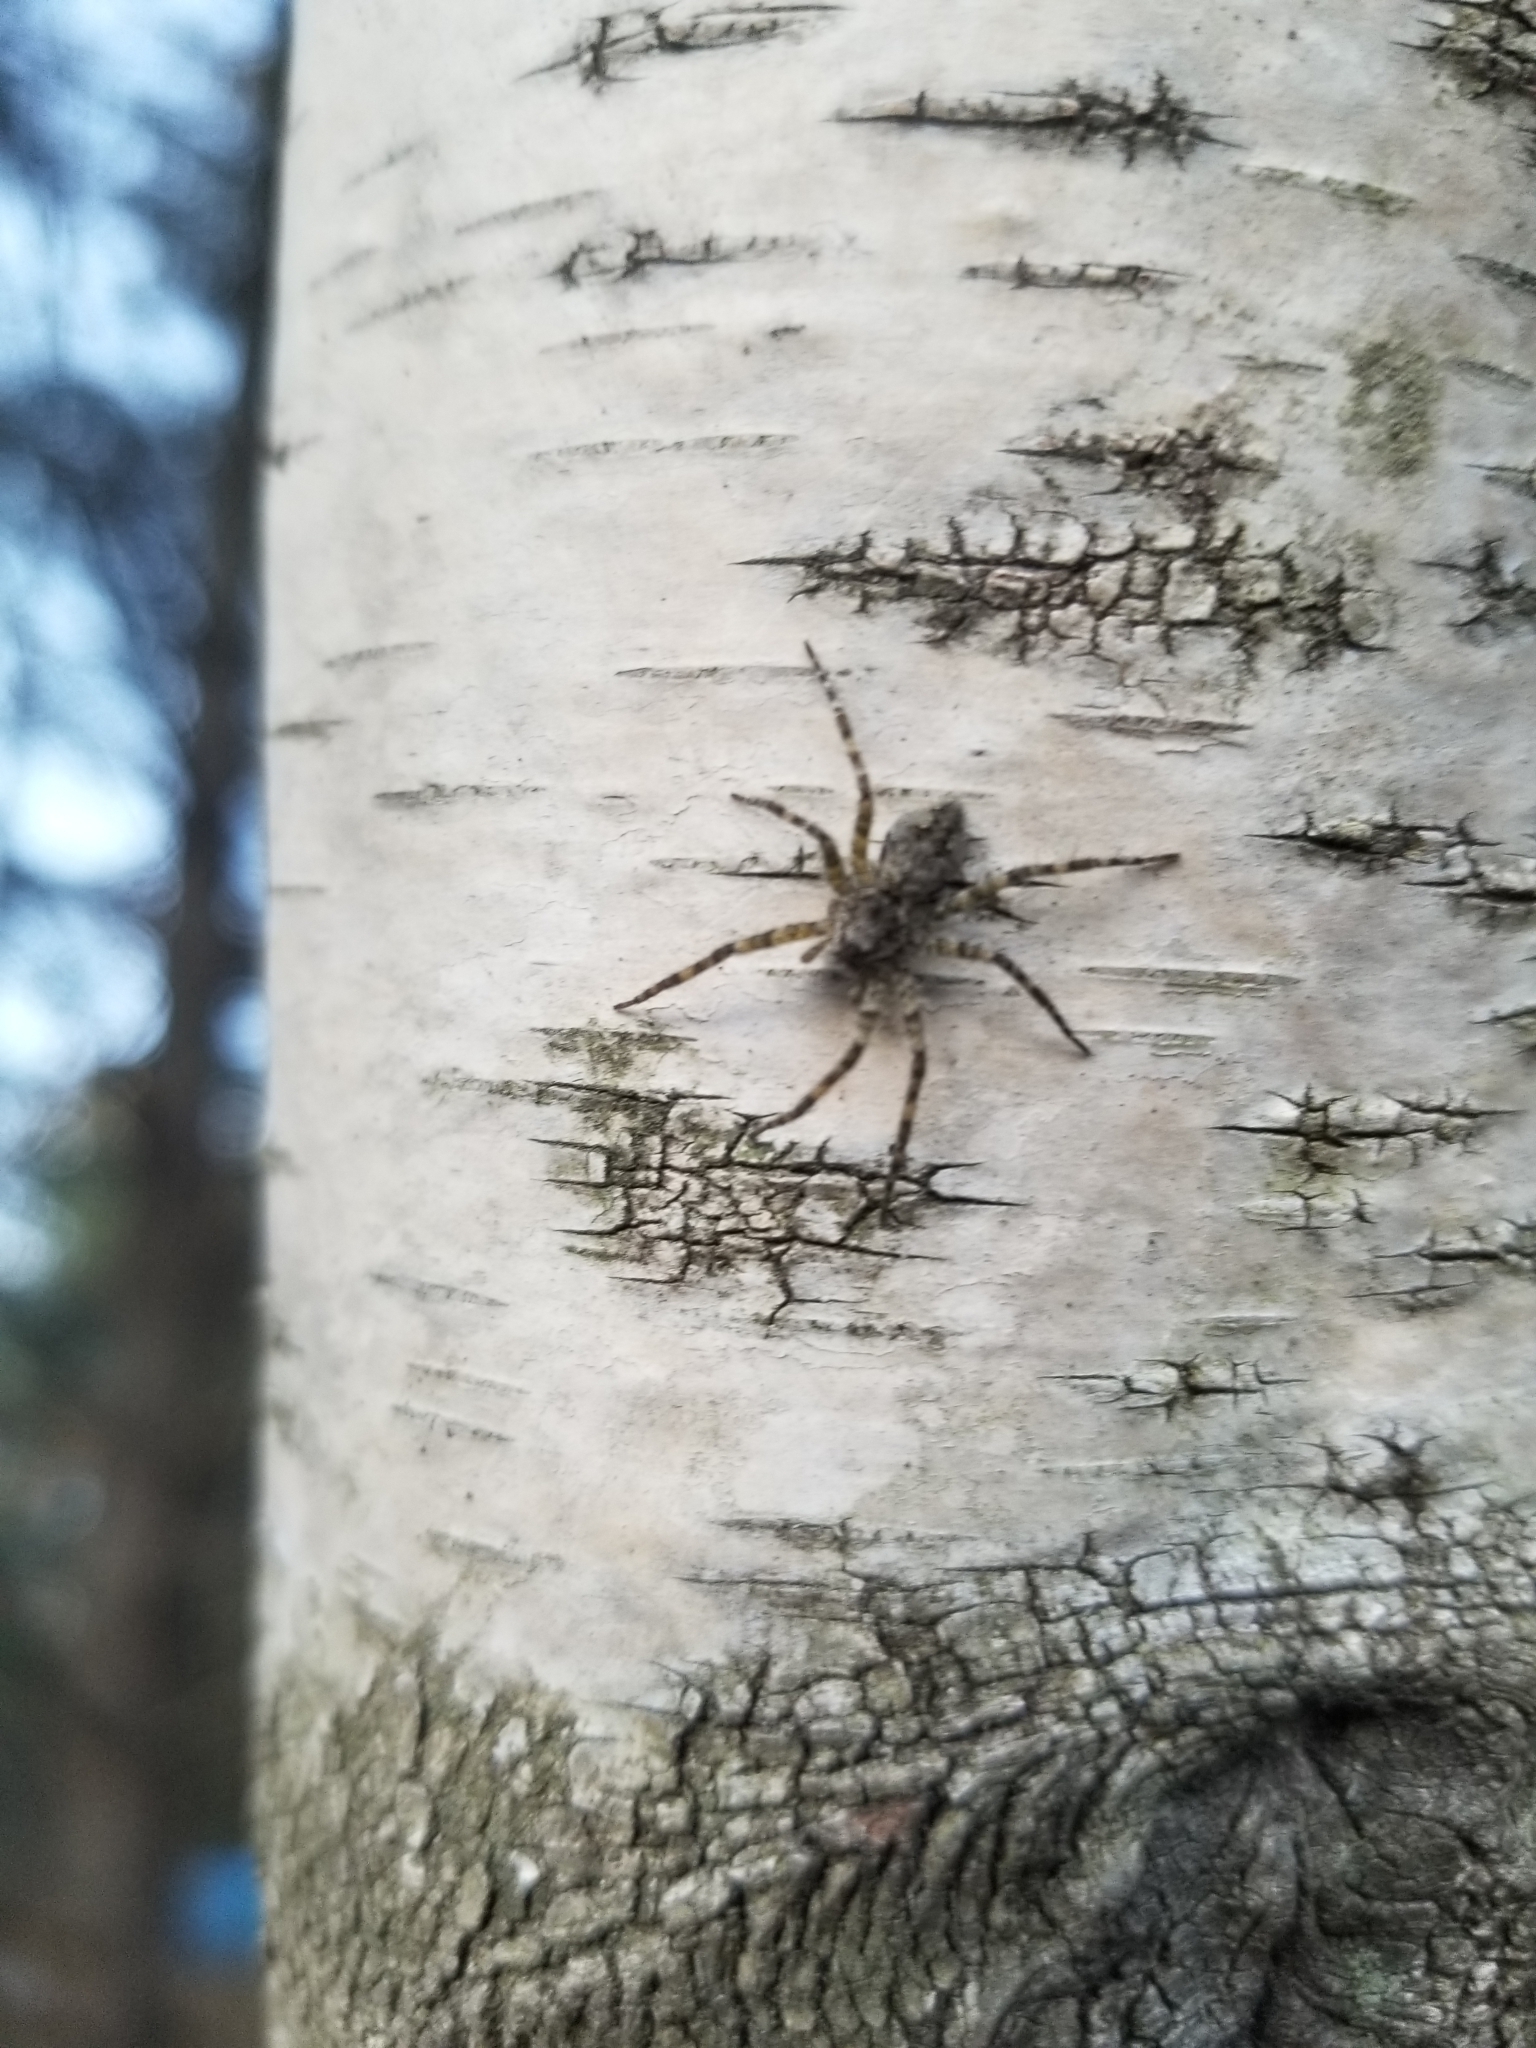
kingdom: Animalia
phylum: Arthropoda
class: Arachnida
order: Araneae
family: Pisauridae
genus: Dolomedes
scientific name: Dolomedes albineus
